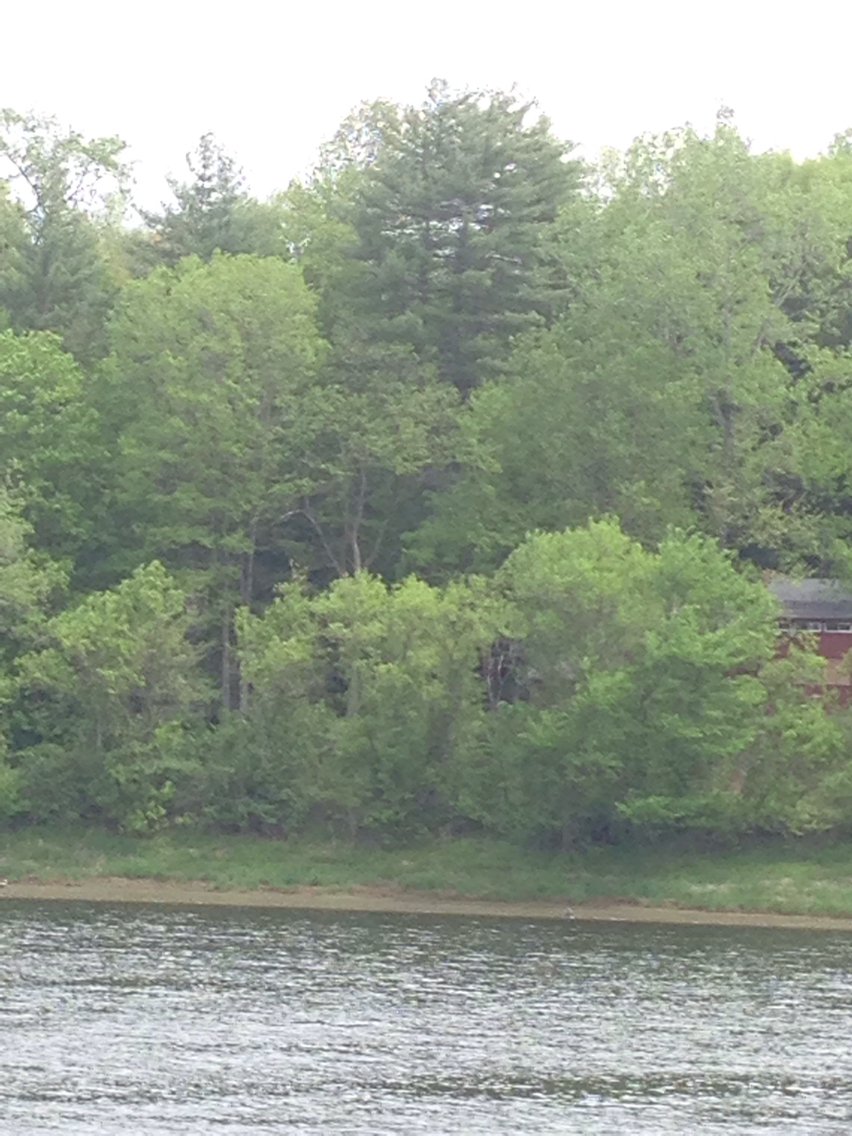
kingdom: Plantae
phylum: Tracheophyta
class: Pinopsida
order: Pinales
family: Pinaceae
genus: Pinus
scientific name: Pinus strobus
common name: Weymouth pine
